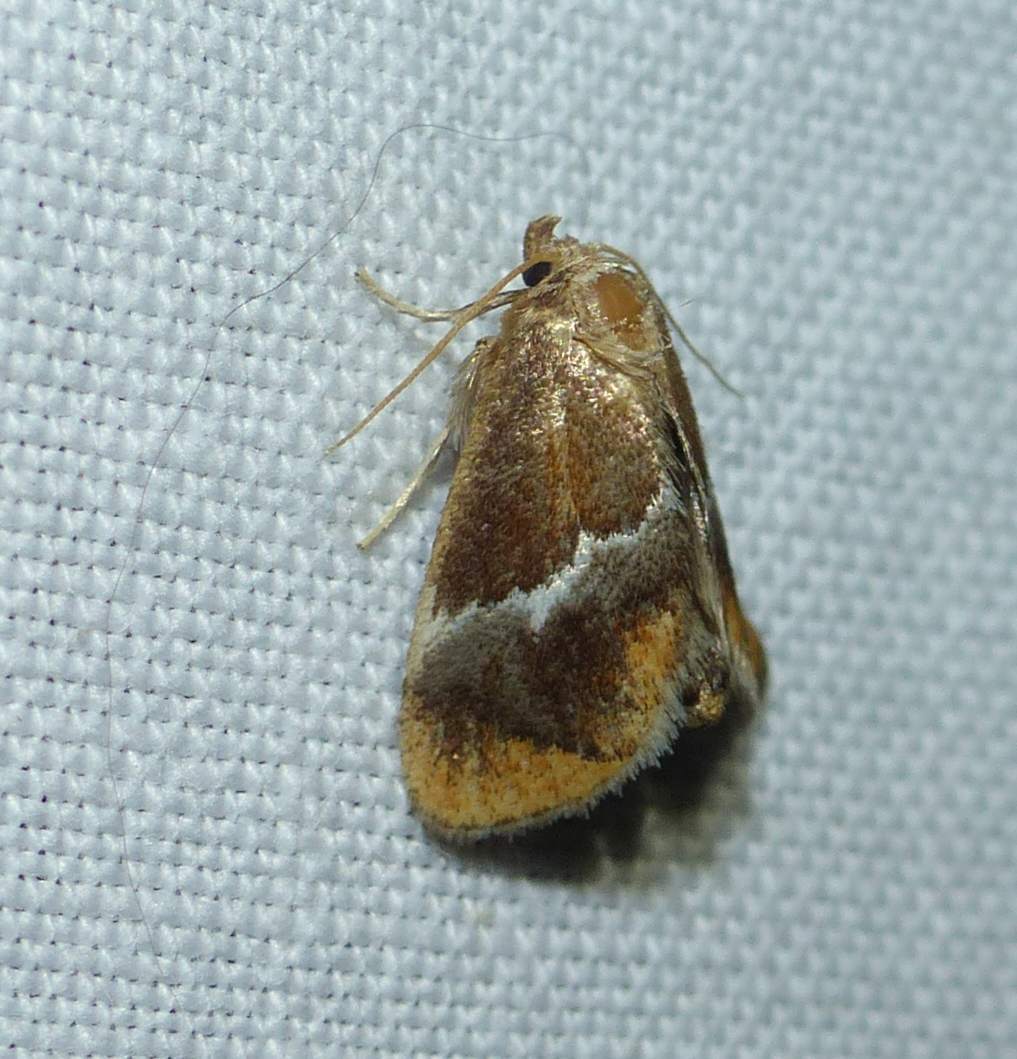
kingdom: Animalia
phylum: Arthropoda
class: Insecta
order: Lepidoptera
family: Limacodidae
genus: Lithacodes
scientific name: Lithacodes fasciola
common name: Yellow-shouldered slug moth
